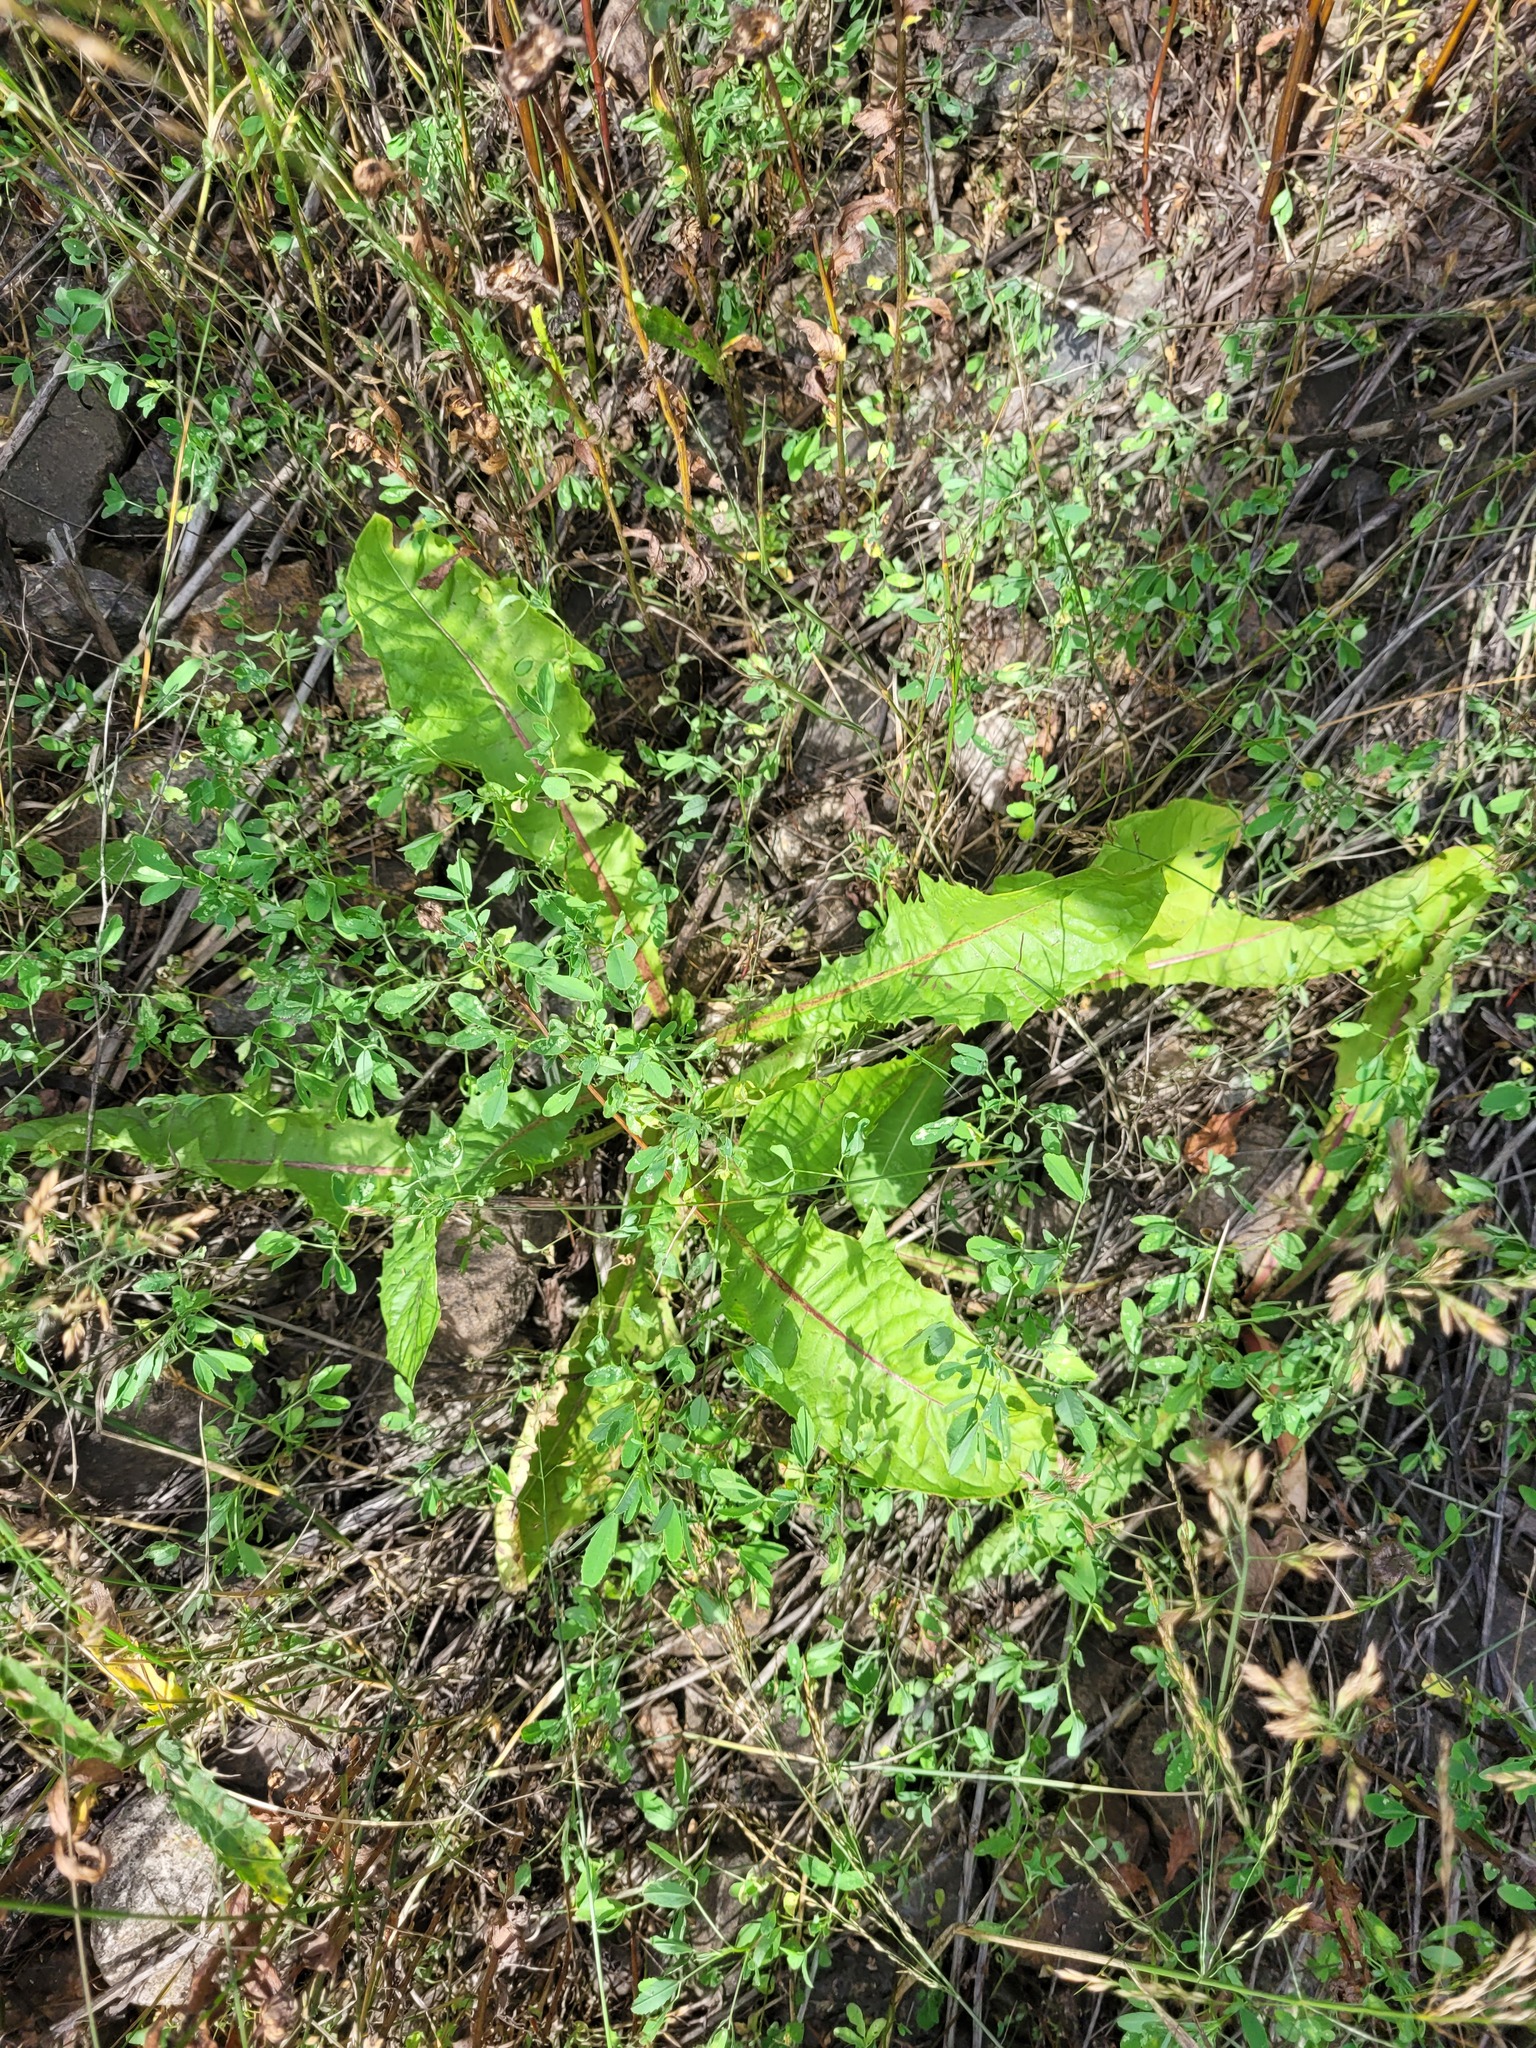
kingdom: Plantae
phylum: Tracheophyta
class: Magnoliopsida
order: Asterales
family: Asteraceae
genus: Taraxacum
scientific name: Taraxacum officinale
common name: Common dandelion
